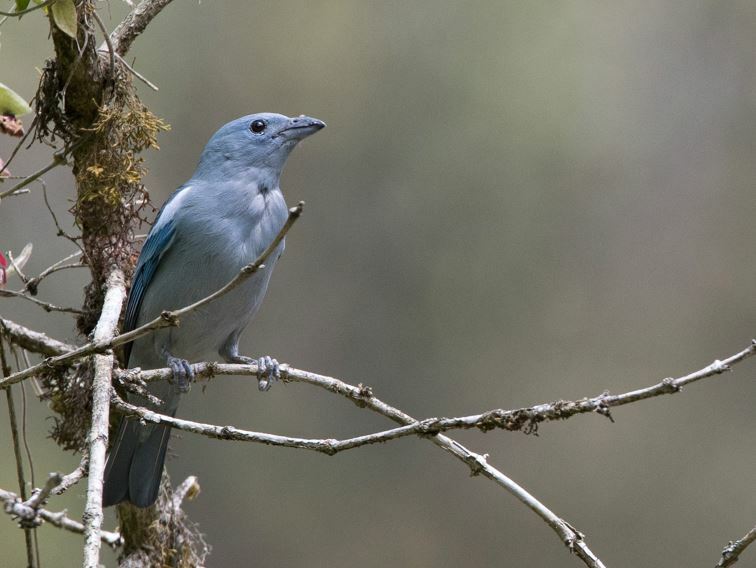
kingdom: Animalia
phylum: Chordata
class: Aves
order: Passeriformes
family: Thraupidae
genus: Thraupis
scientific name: Thraupis episcopus
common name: Blue-grey tanager
